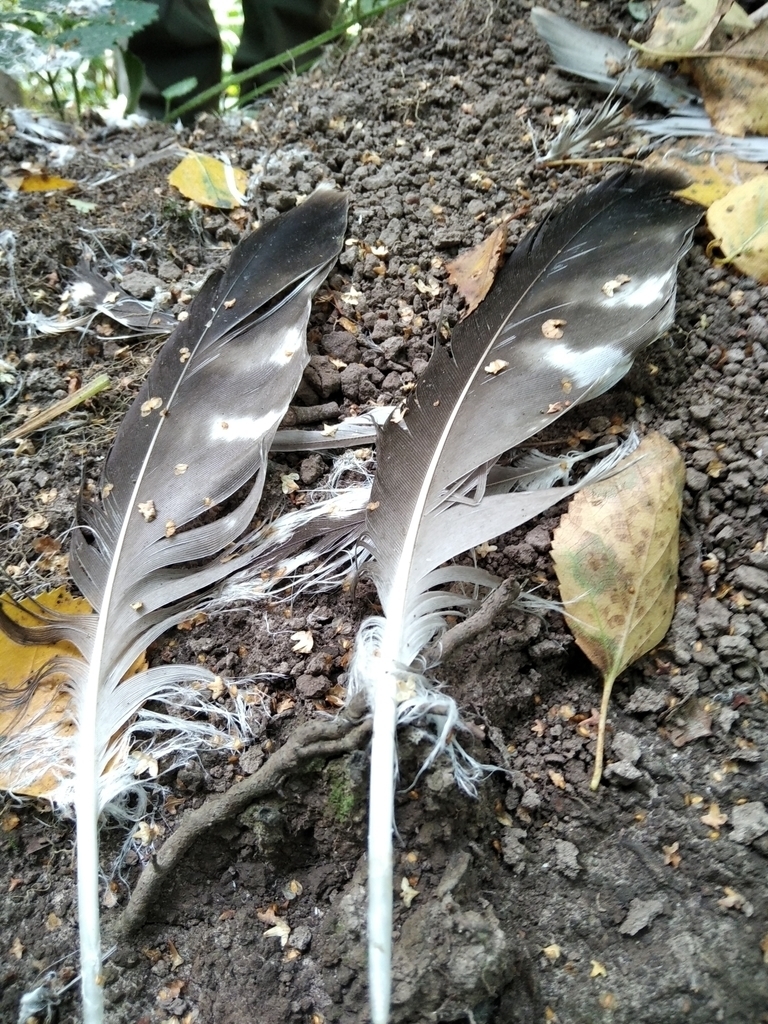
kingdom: Animalia
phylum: Chordata
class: Aves
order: Accipitriformes
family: Accipitridae
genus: Buteo
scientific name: Buteo buteo
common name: Common buzzard
